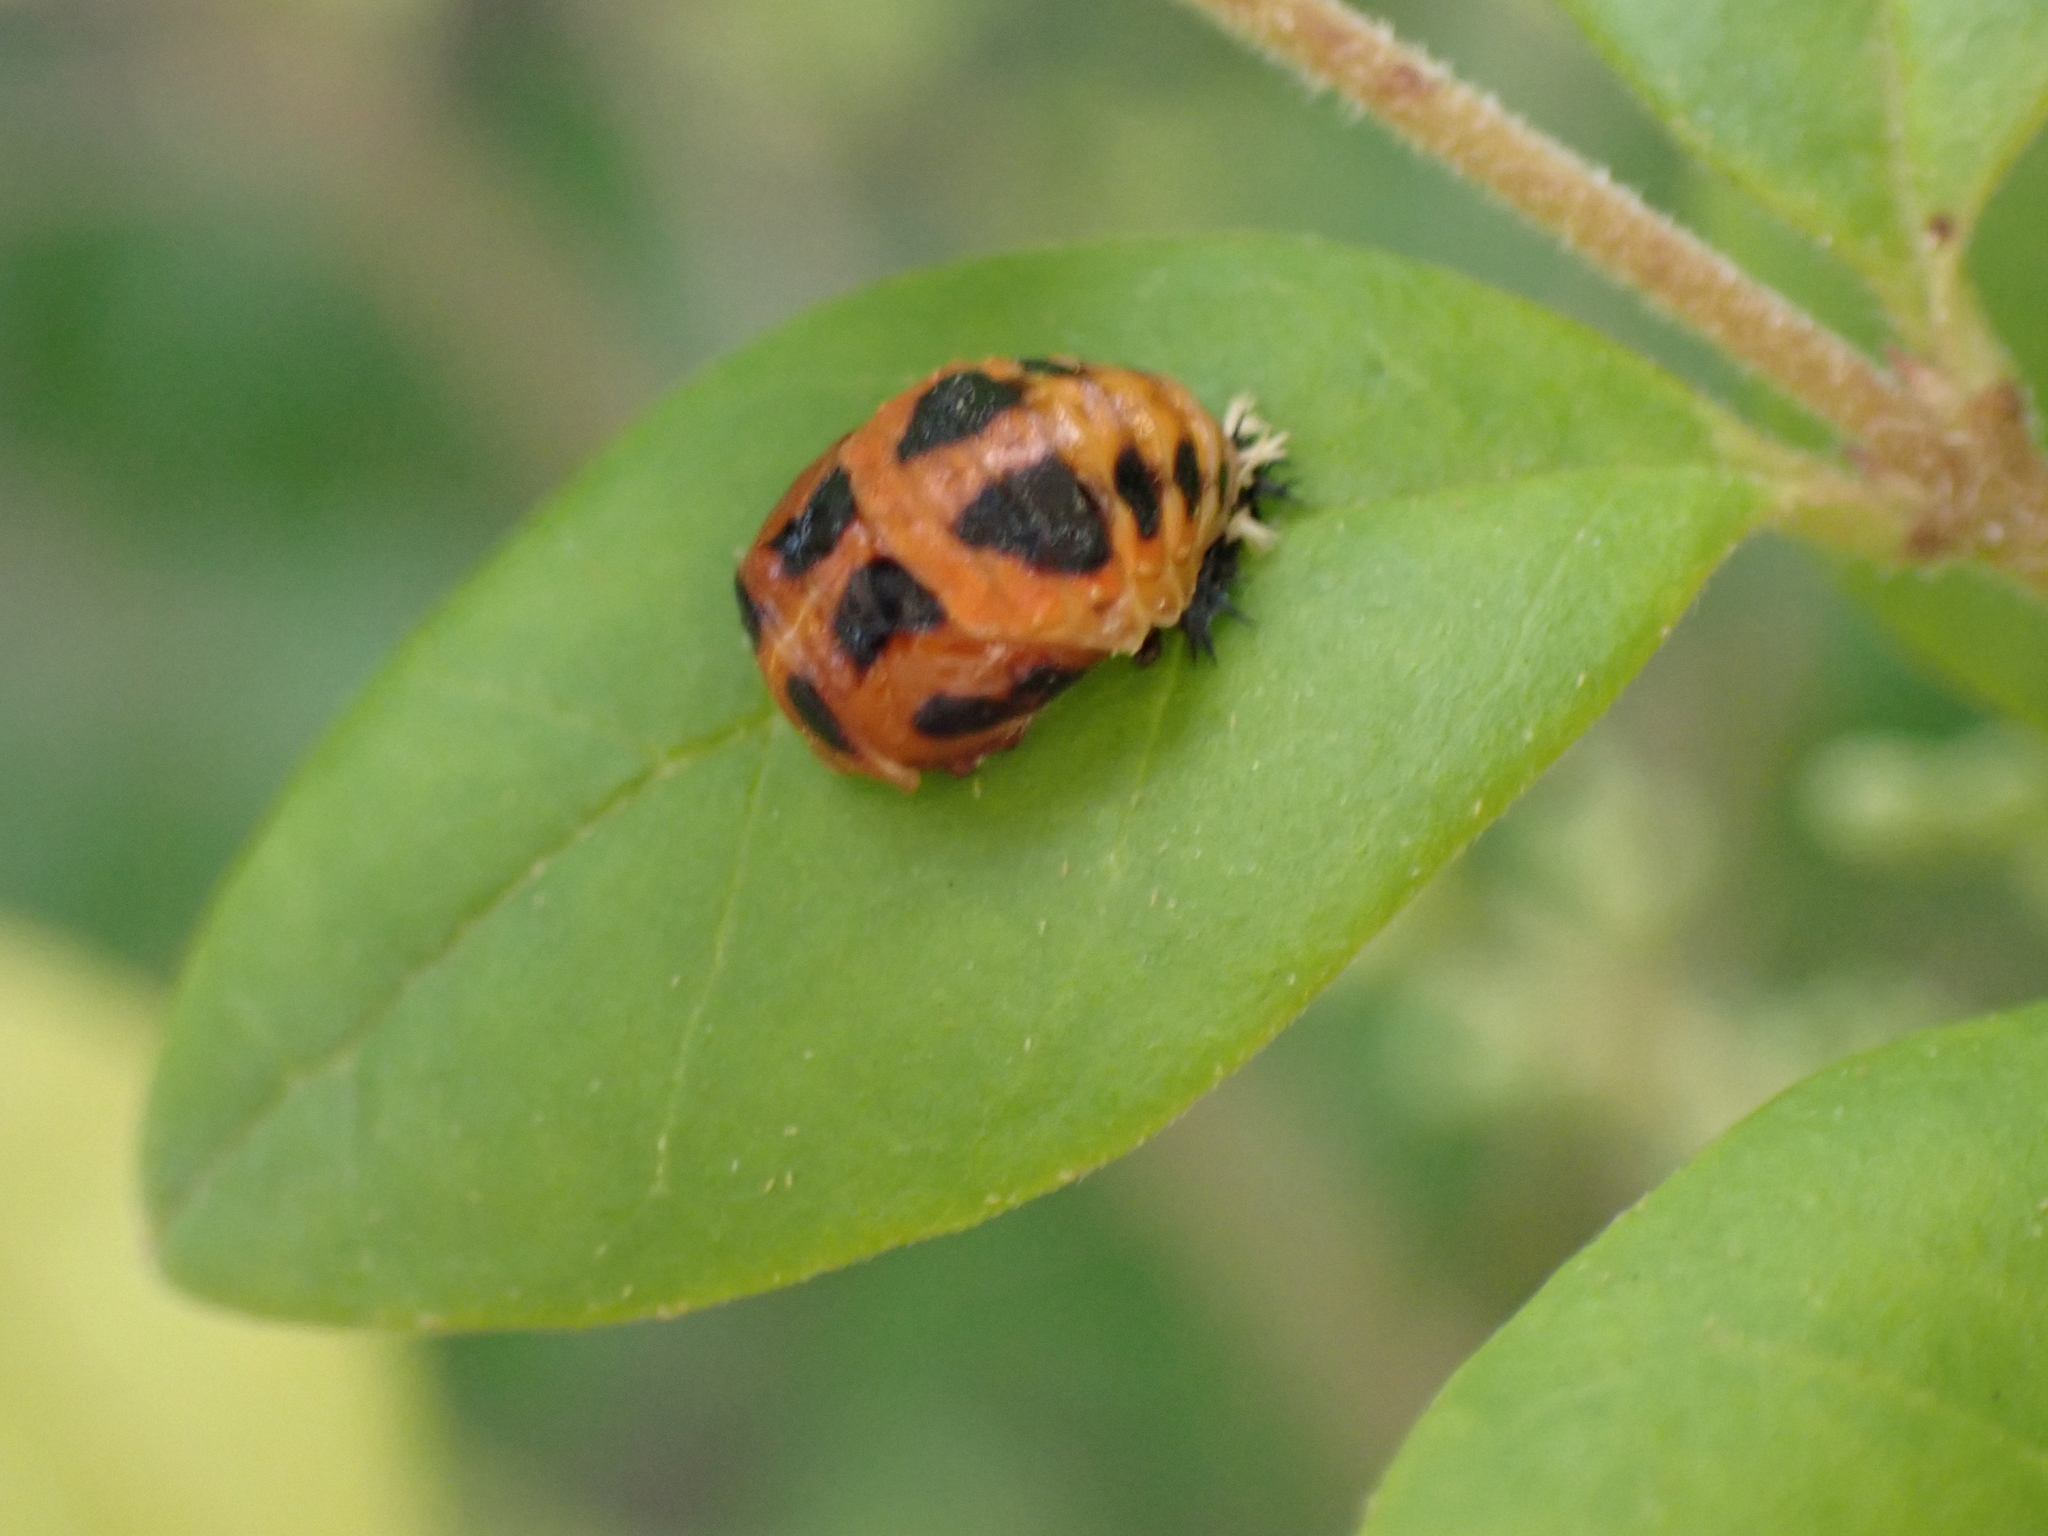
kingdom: Animalia
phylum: Arthropoda
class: Insecta
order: Coleoptera
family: Coccinellidae
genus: Harmonia
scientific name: Harmonia axyridis
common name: Harlequin ladybird
